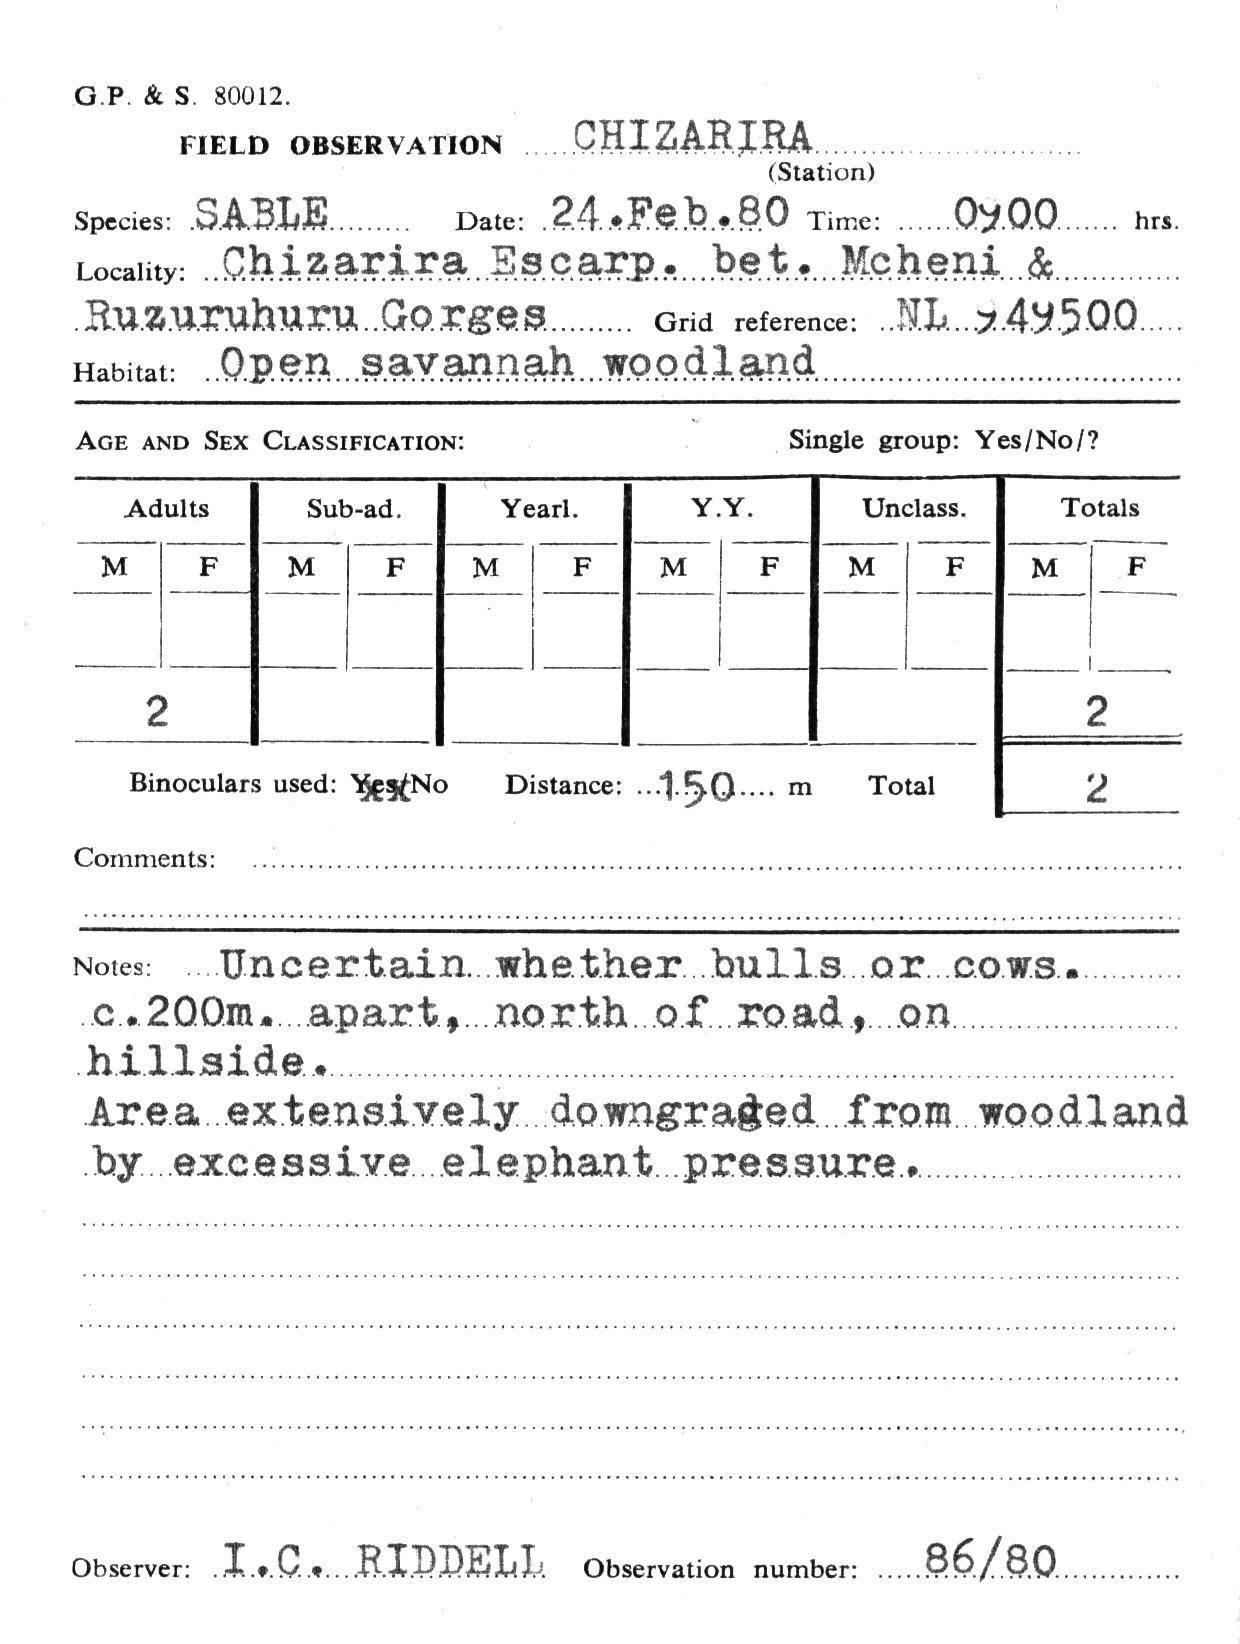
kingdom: Animalia
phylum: Chordata
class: Mammalia
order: Artiodactyla
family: Bovidae
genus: Hippotragus
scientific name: Hippotragus niger
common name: Sable antelope
